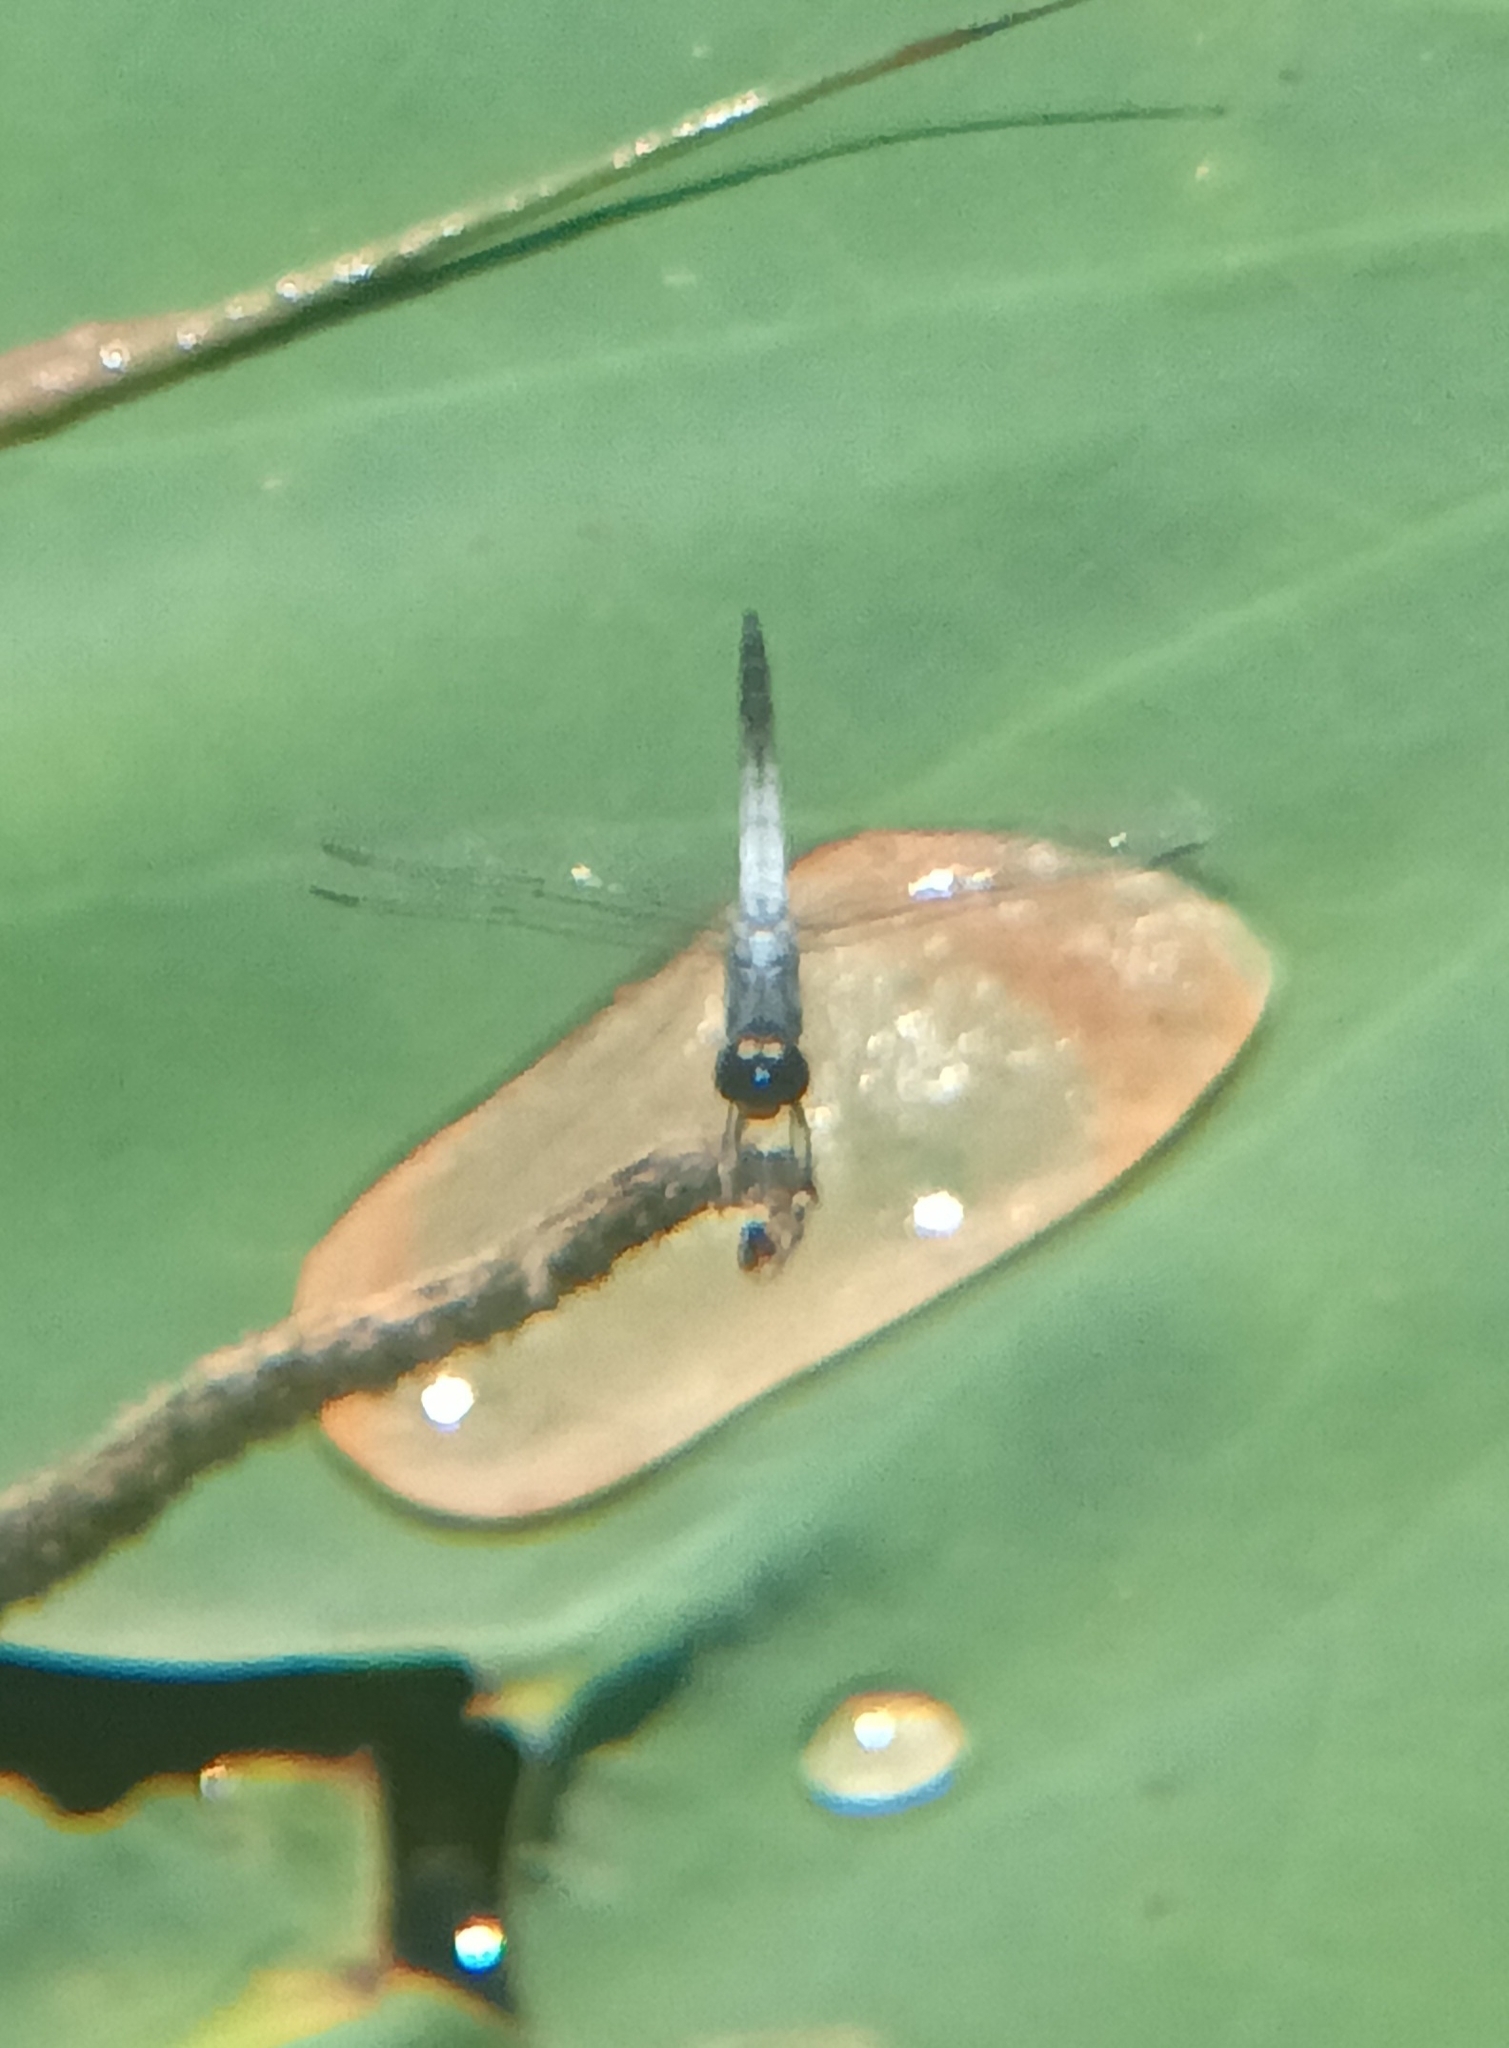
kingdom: Animalia
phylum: Arthropoda
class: Insecta
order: Odonata
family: Libellulidae
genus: Brachydiplax
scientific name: Brachydiplax sobrina
